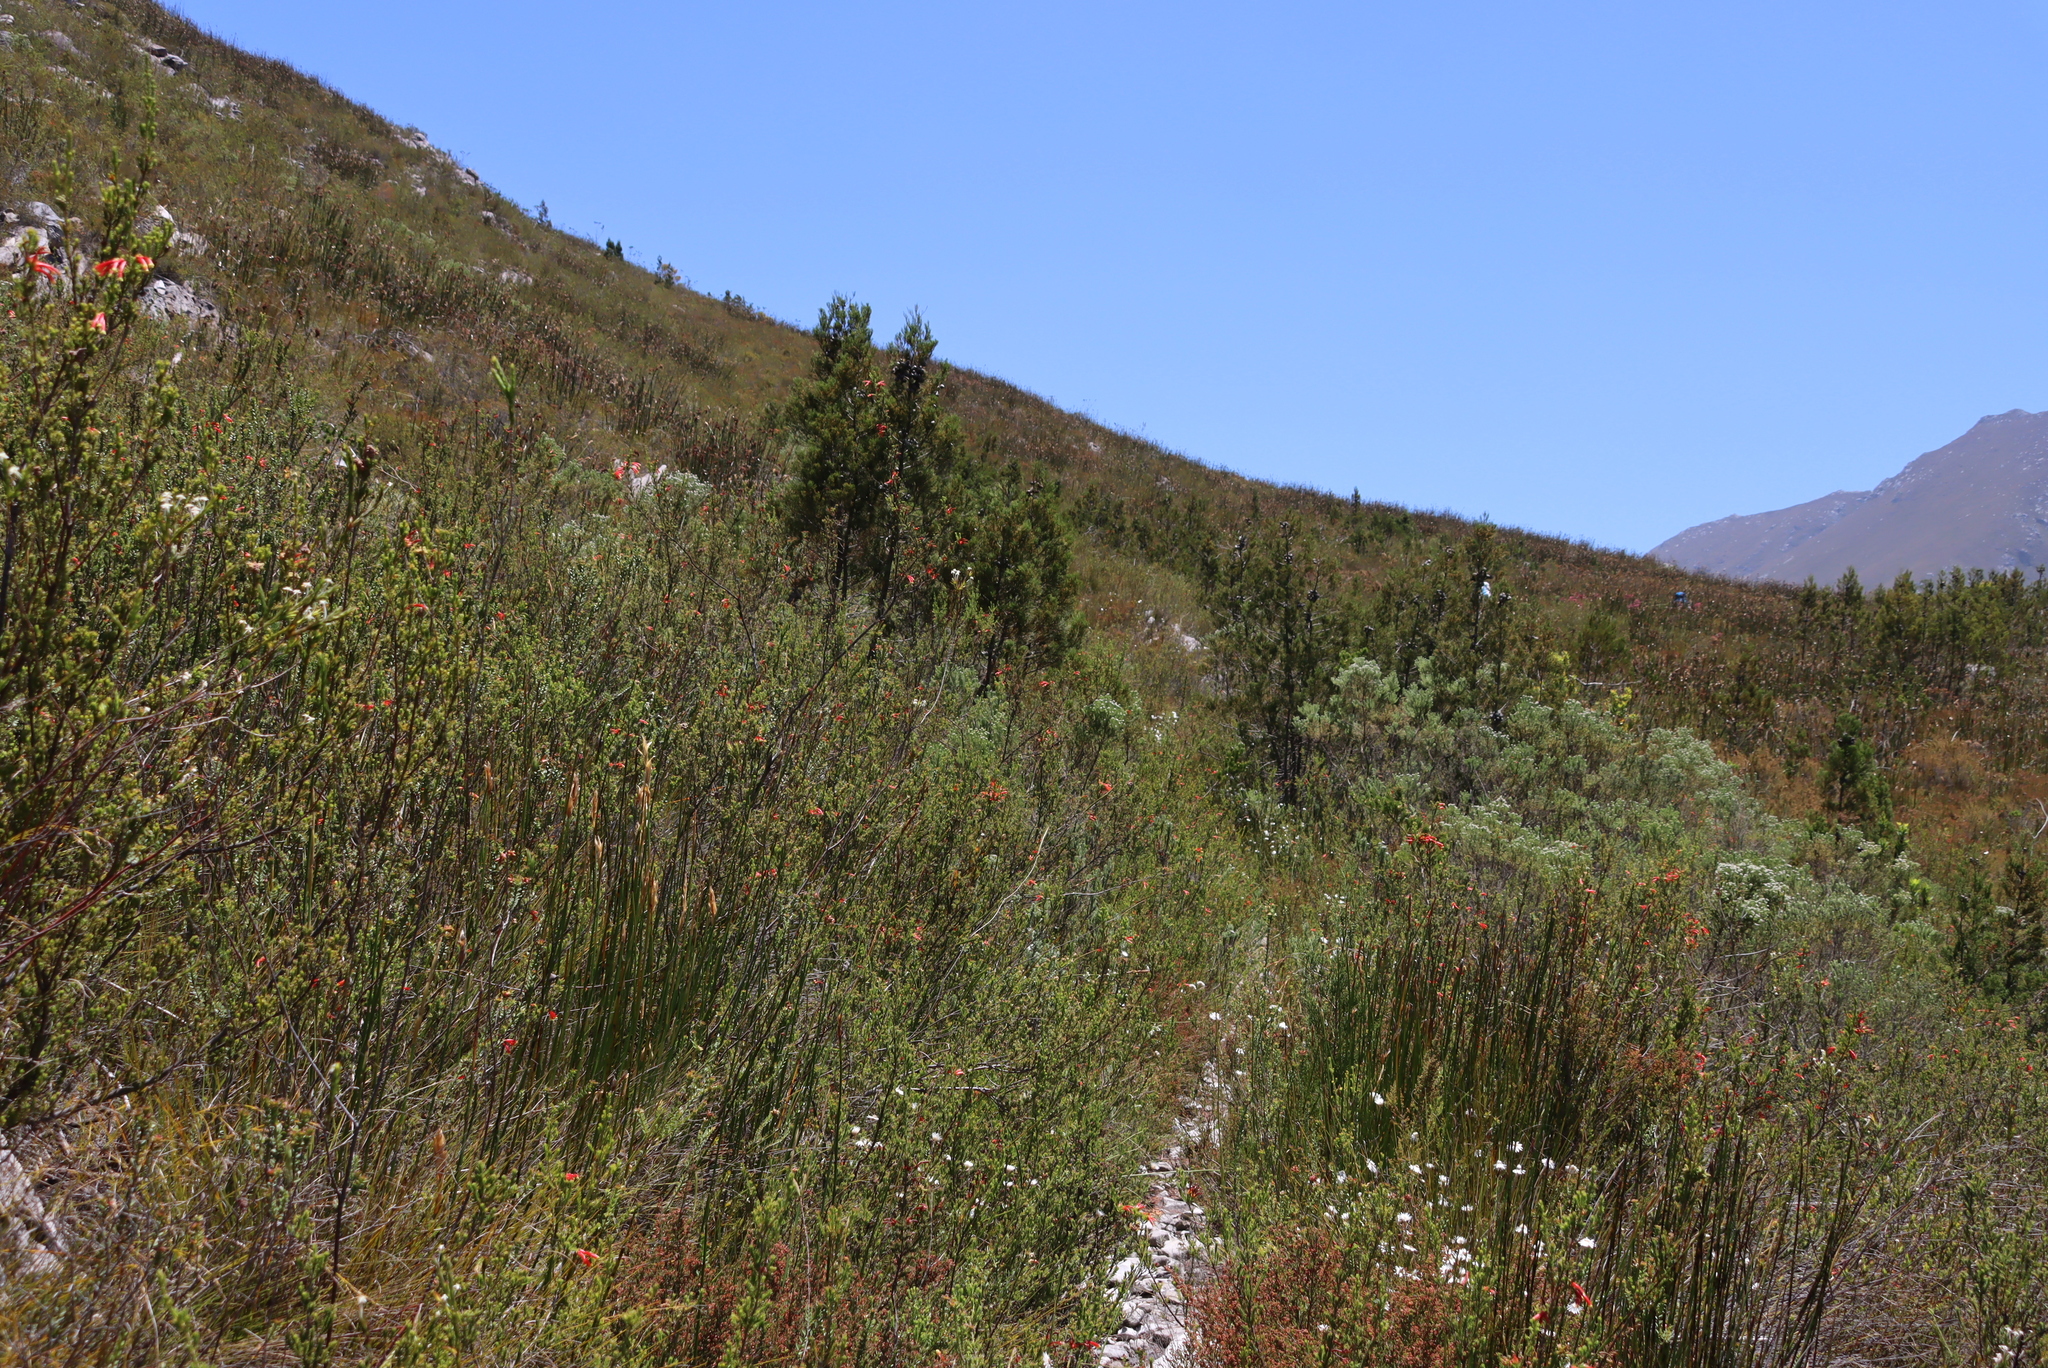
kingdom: Plantae
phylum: Tracheophyta
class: Pinopsida
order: Pinales
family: Cupressaceae
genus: Widdringtonia
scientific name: Widdringtonia nodiflora
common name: Cape cypress
